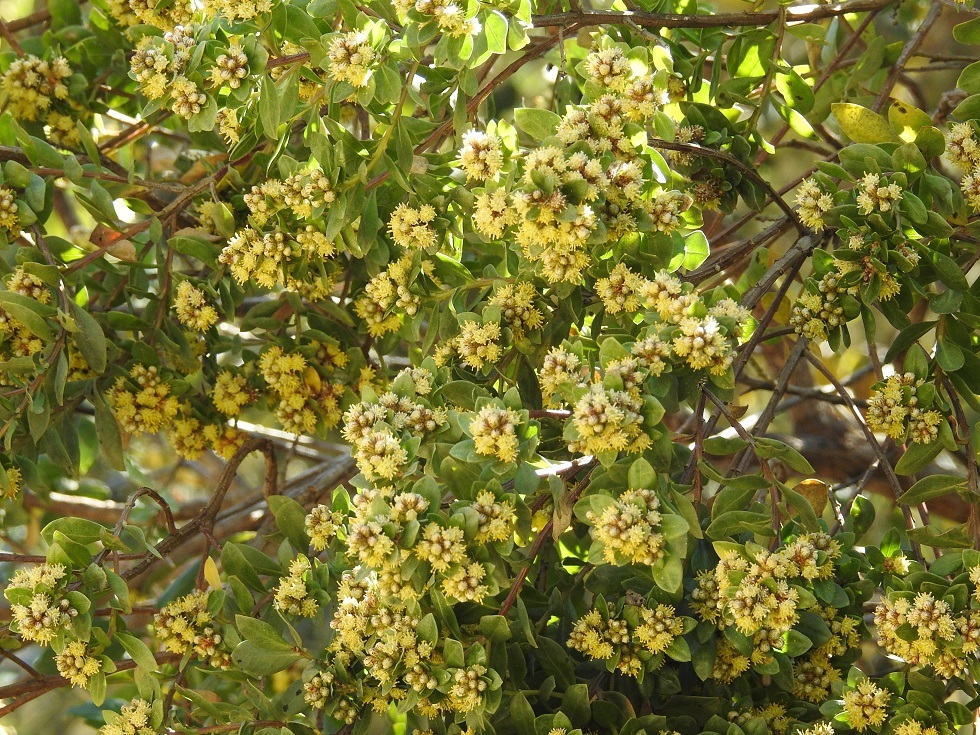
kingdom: Plantae
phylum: Tracheophyta
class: Magnoliopsida
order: Asterales
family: Asteraceae
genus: Baccharis
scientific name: Baccharis lancifolia
